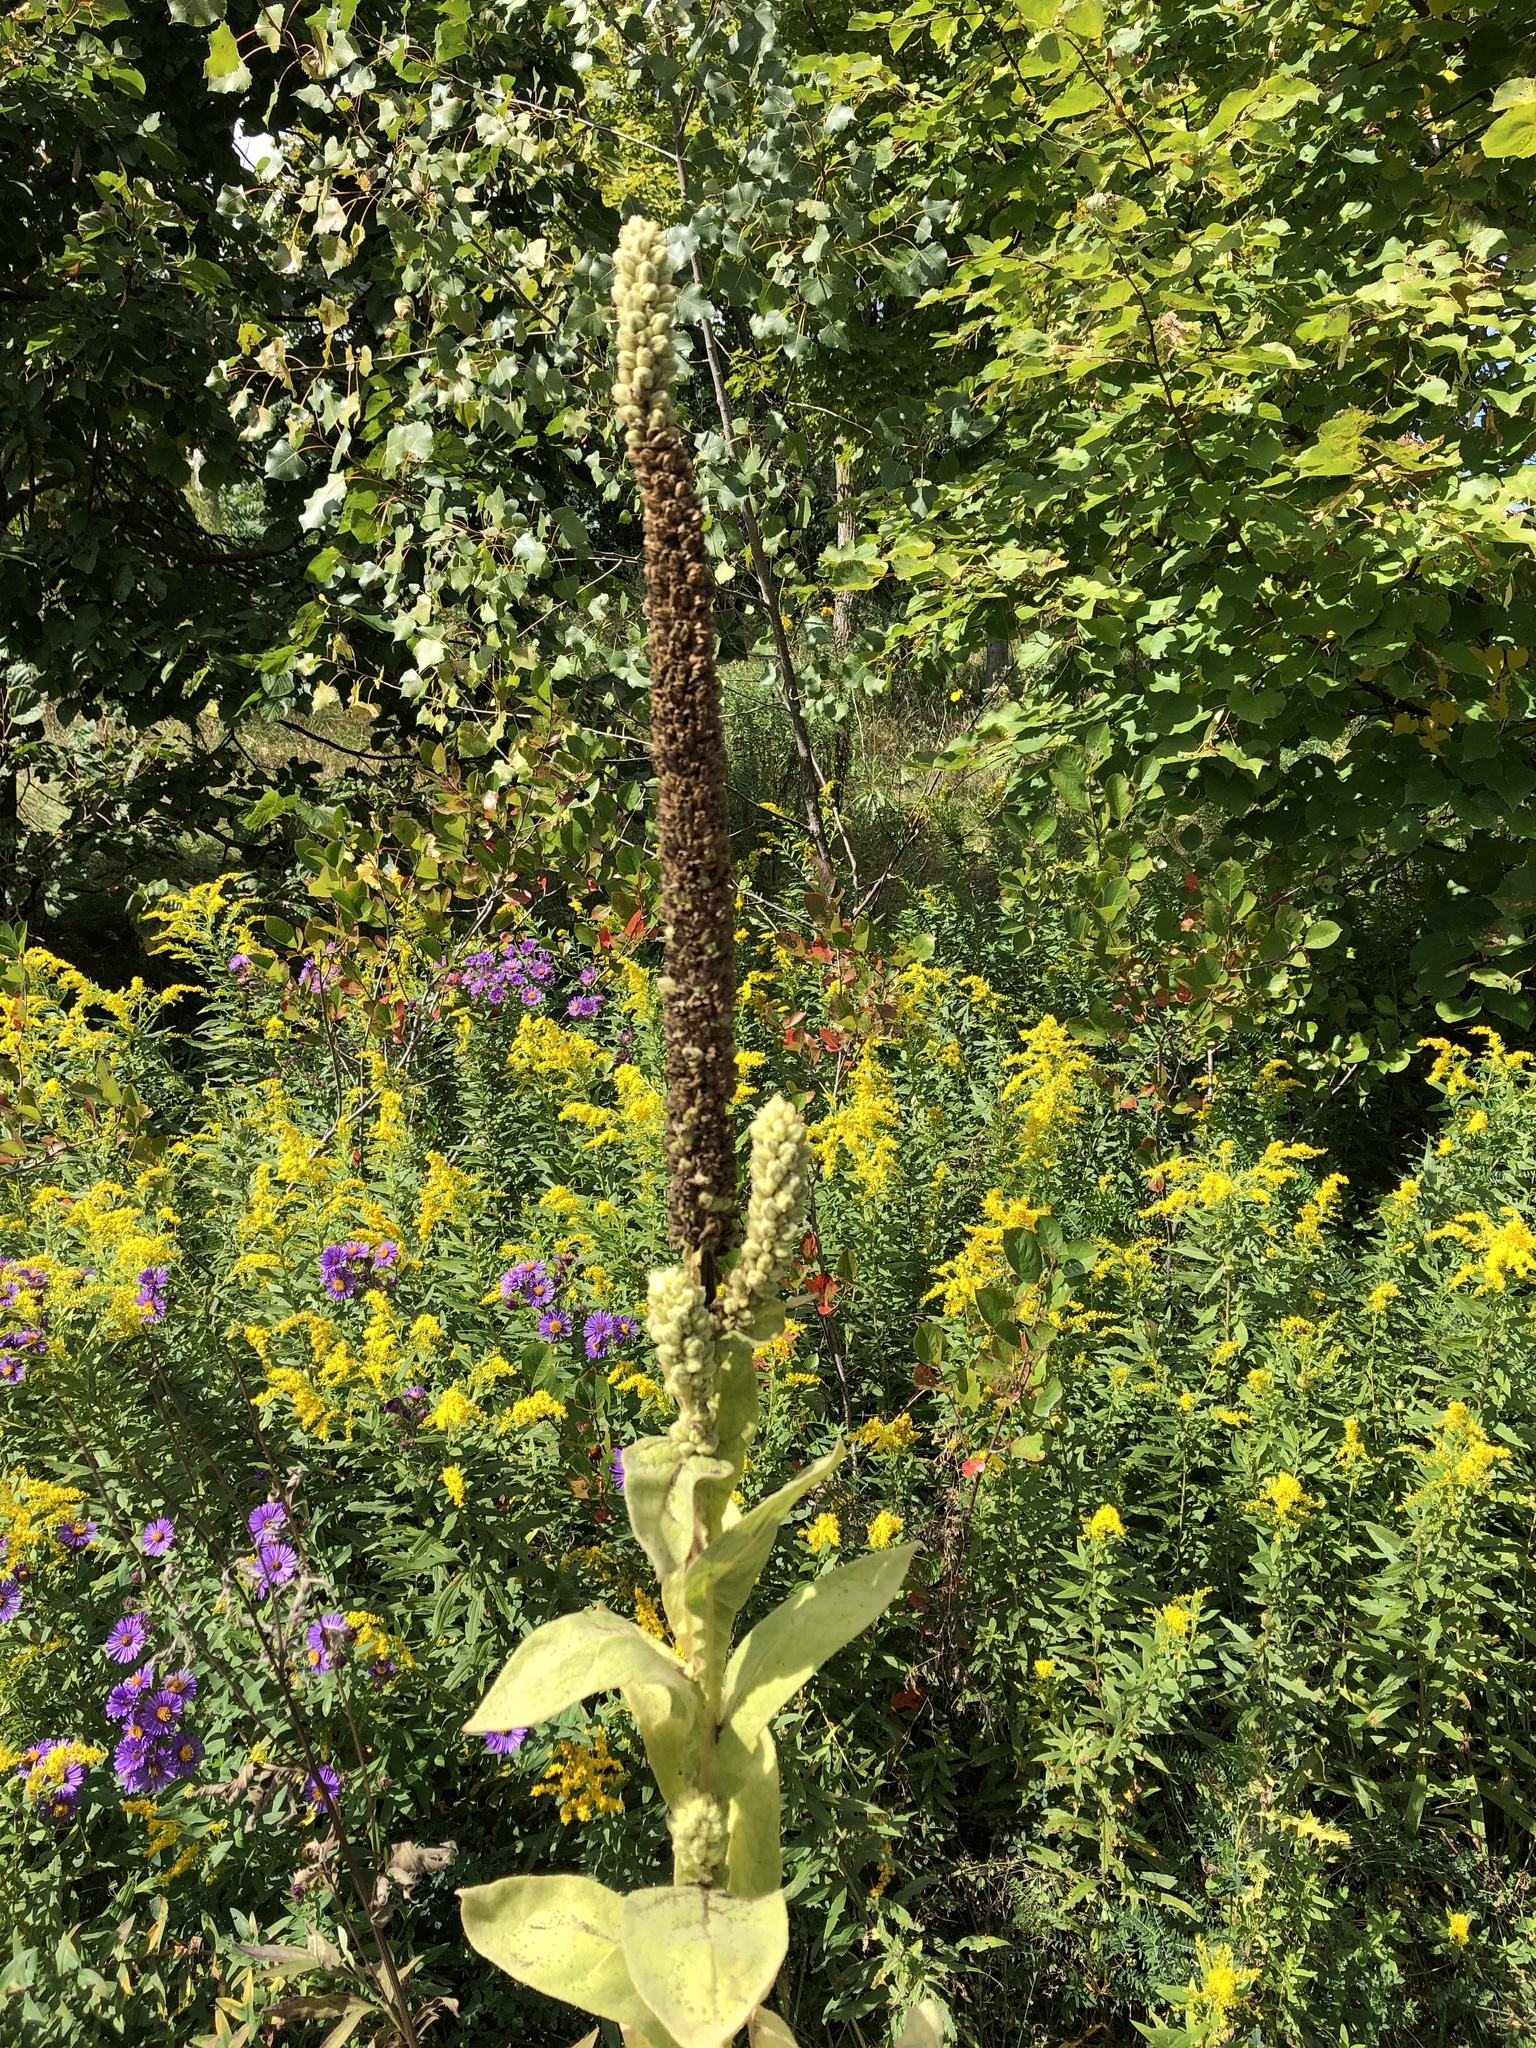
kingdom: Plantae
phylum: Tracheophyta
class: Magnoliopsida
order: Lamiales
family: Scrophulariaceae
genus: Verbascum
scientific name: Verbascum thapsus
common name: Common mullein
